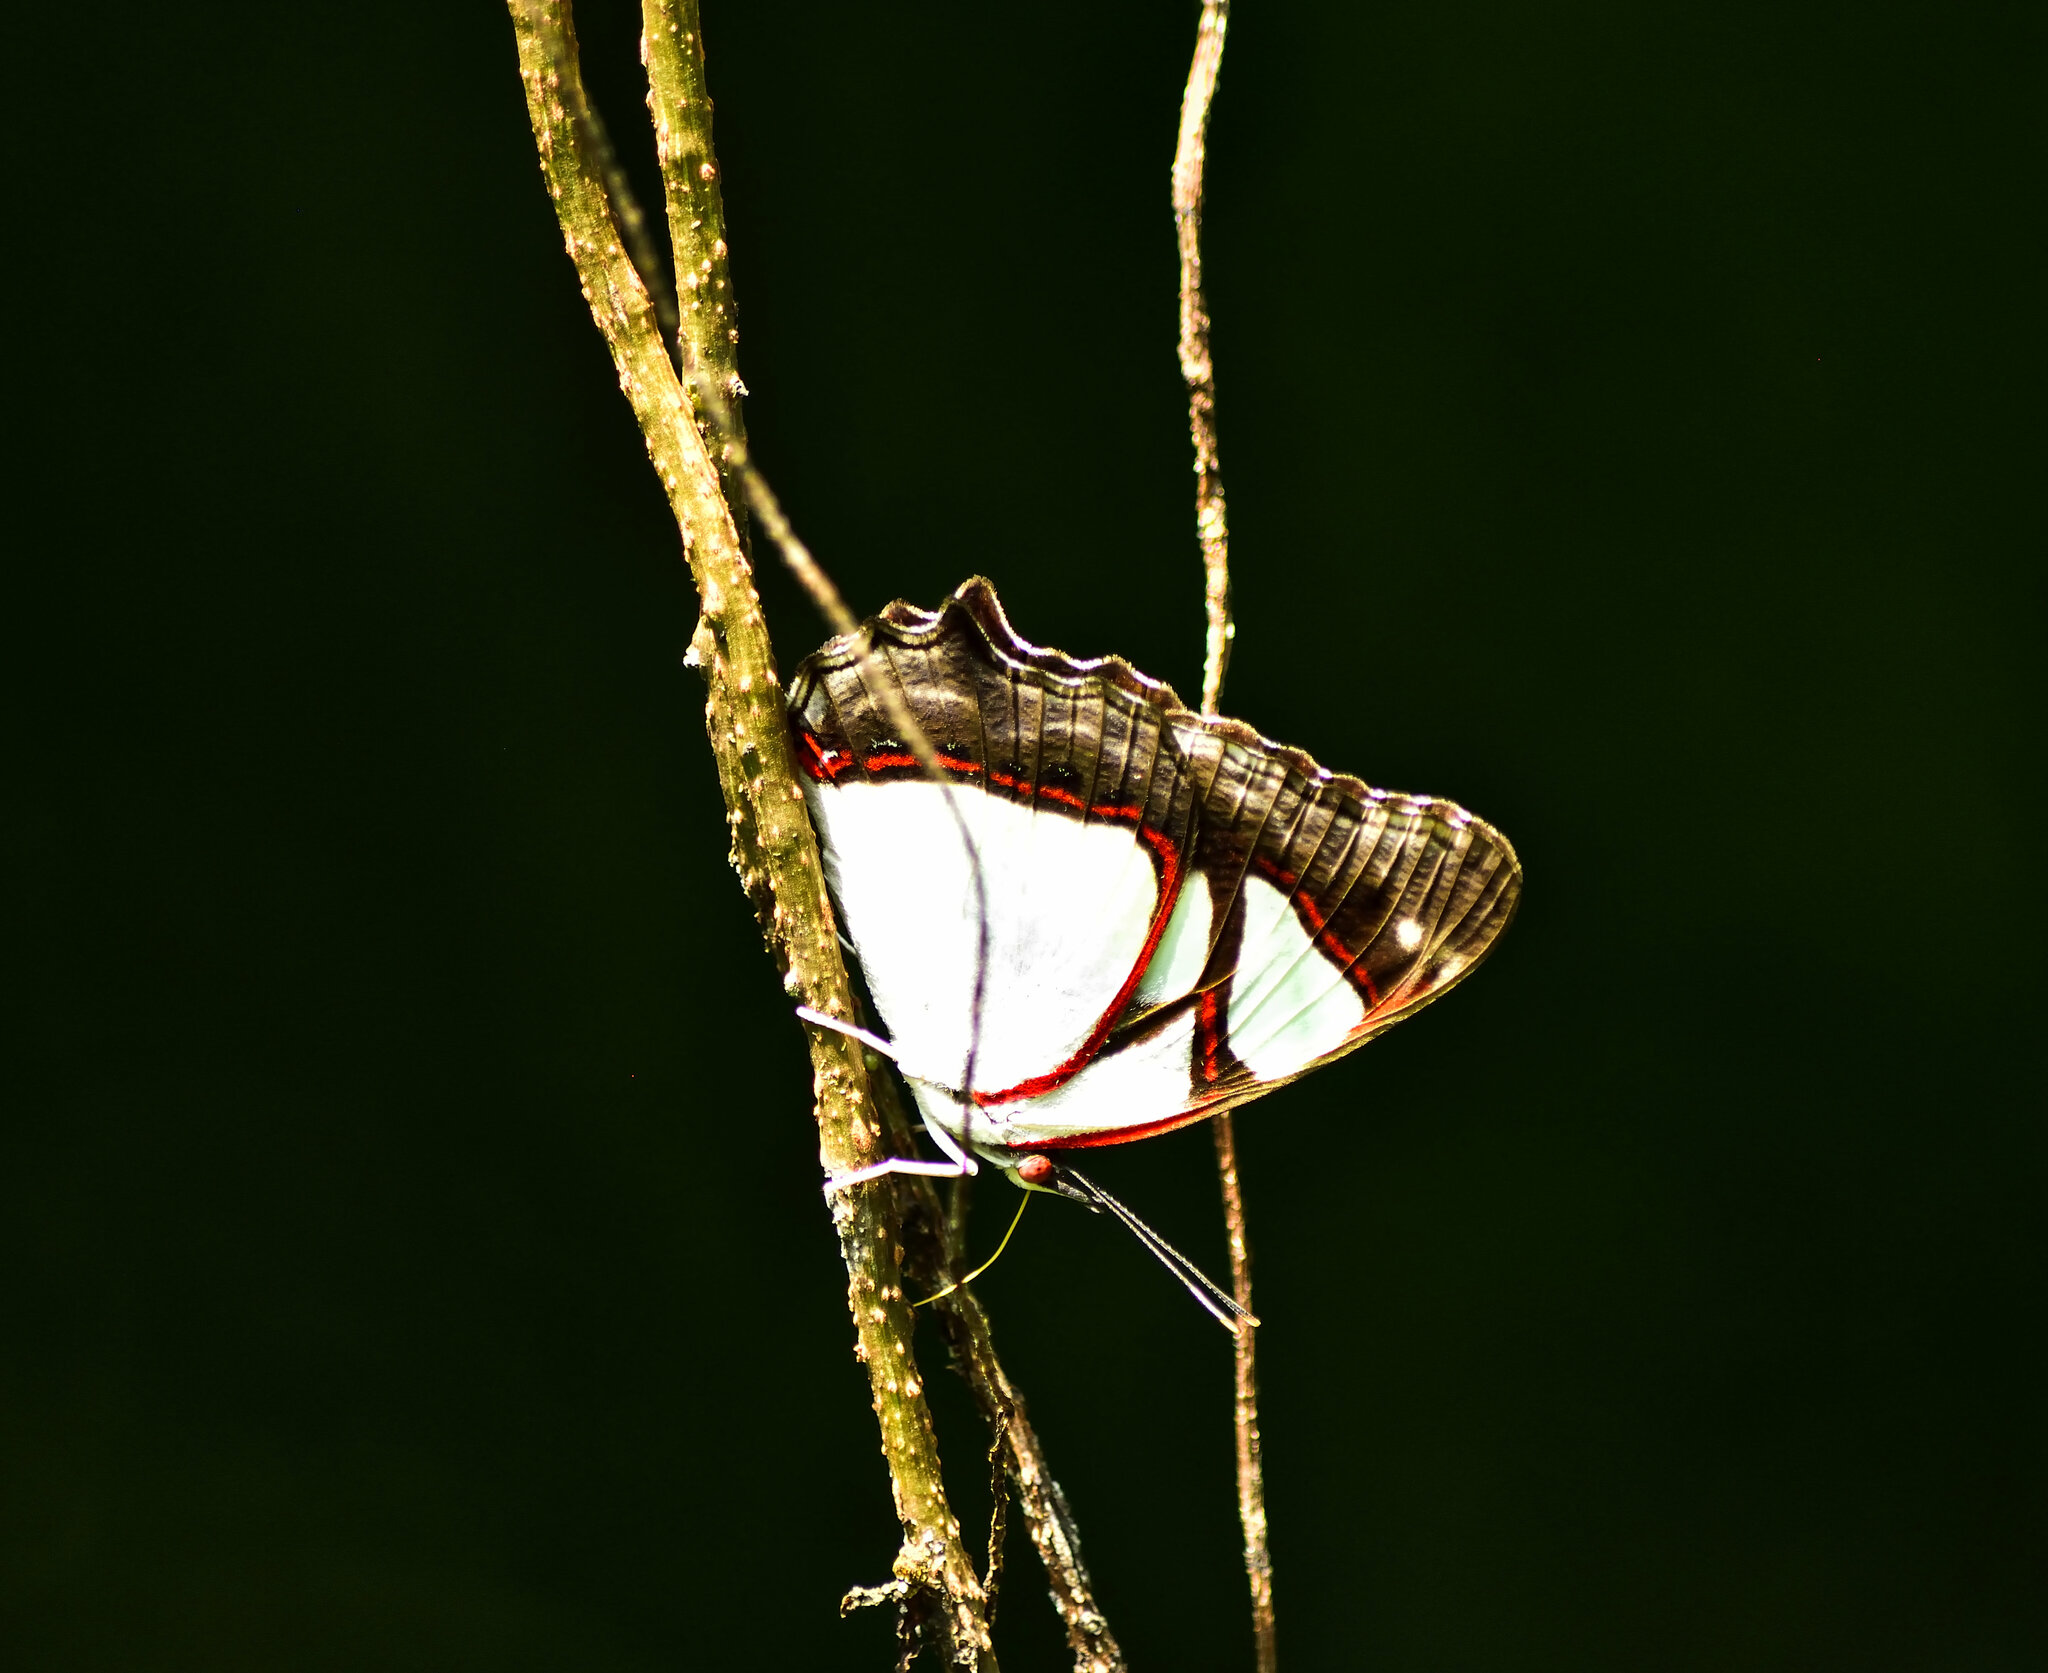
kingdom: Animalia
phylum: Arthropoda
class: Insecta
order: Lepidoptera
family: Nymphalidae
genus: Pyrrhogyra
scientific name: Pyrrhogyra neaerea
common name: Leading red-ring
